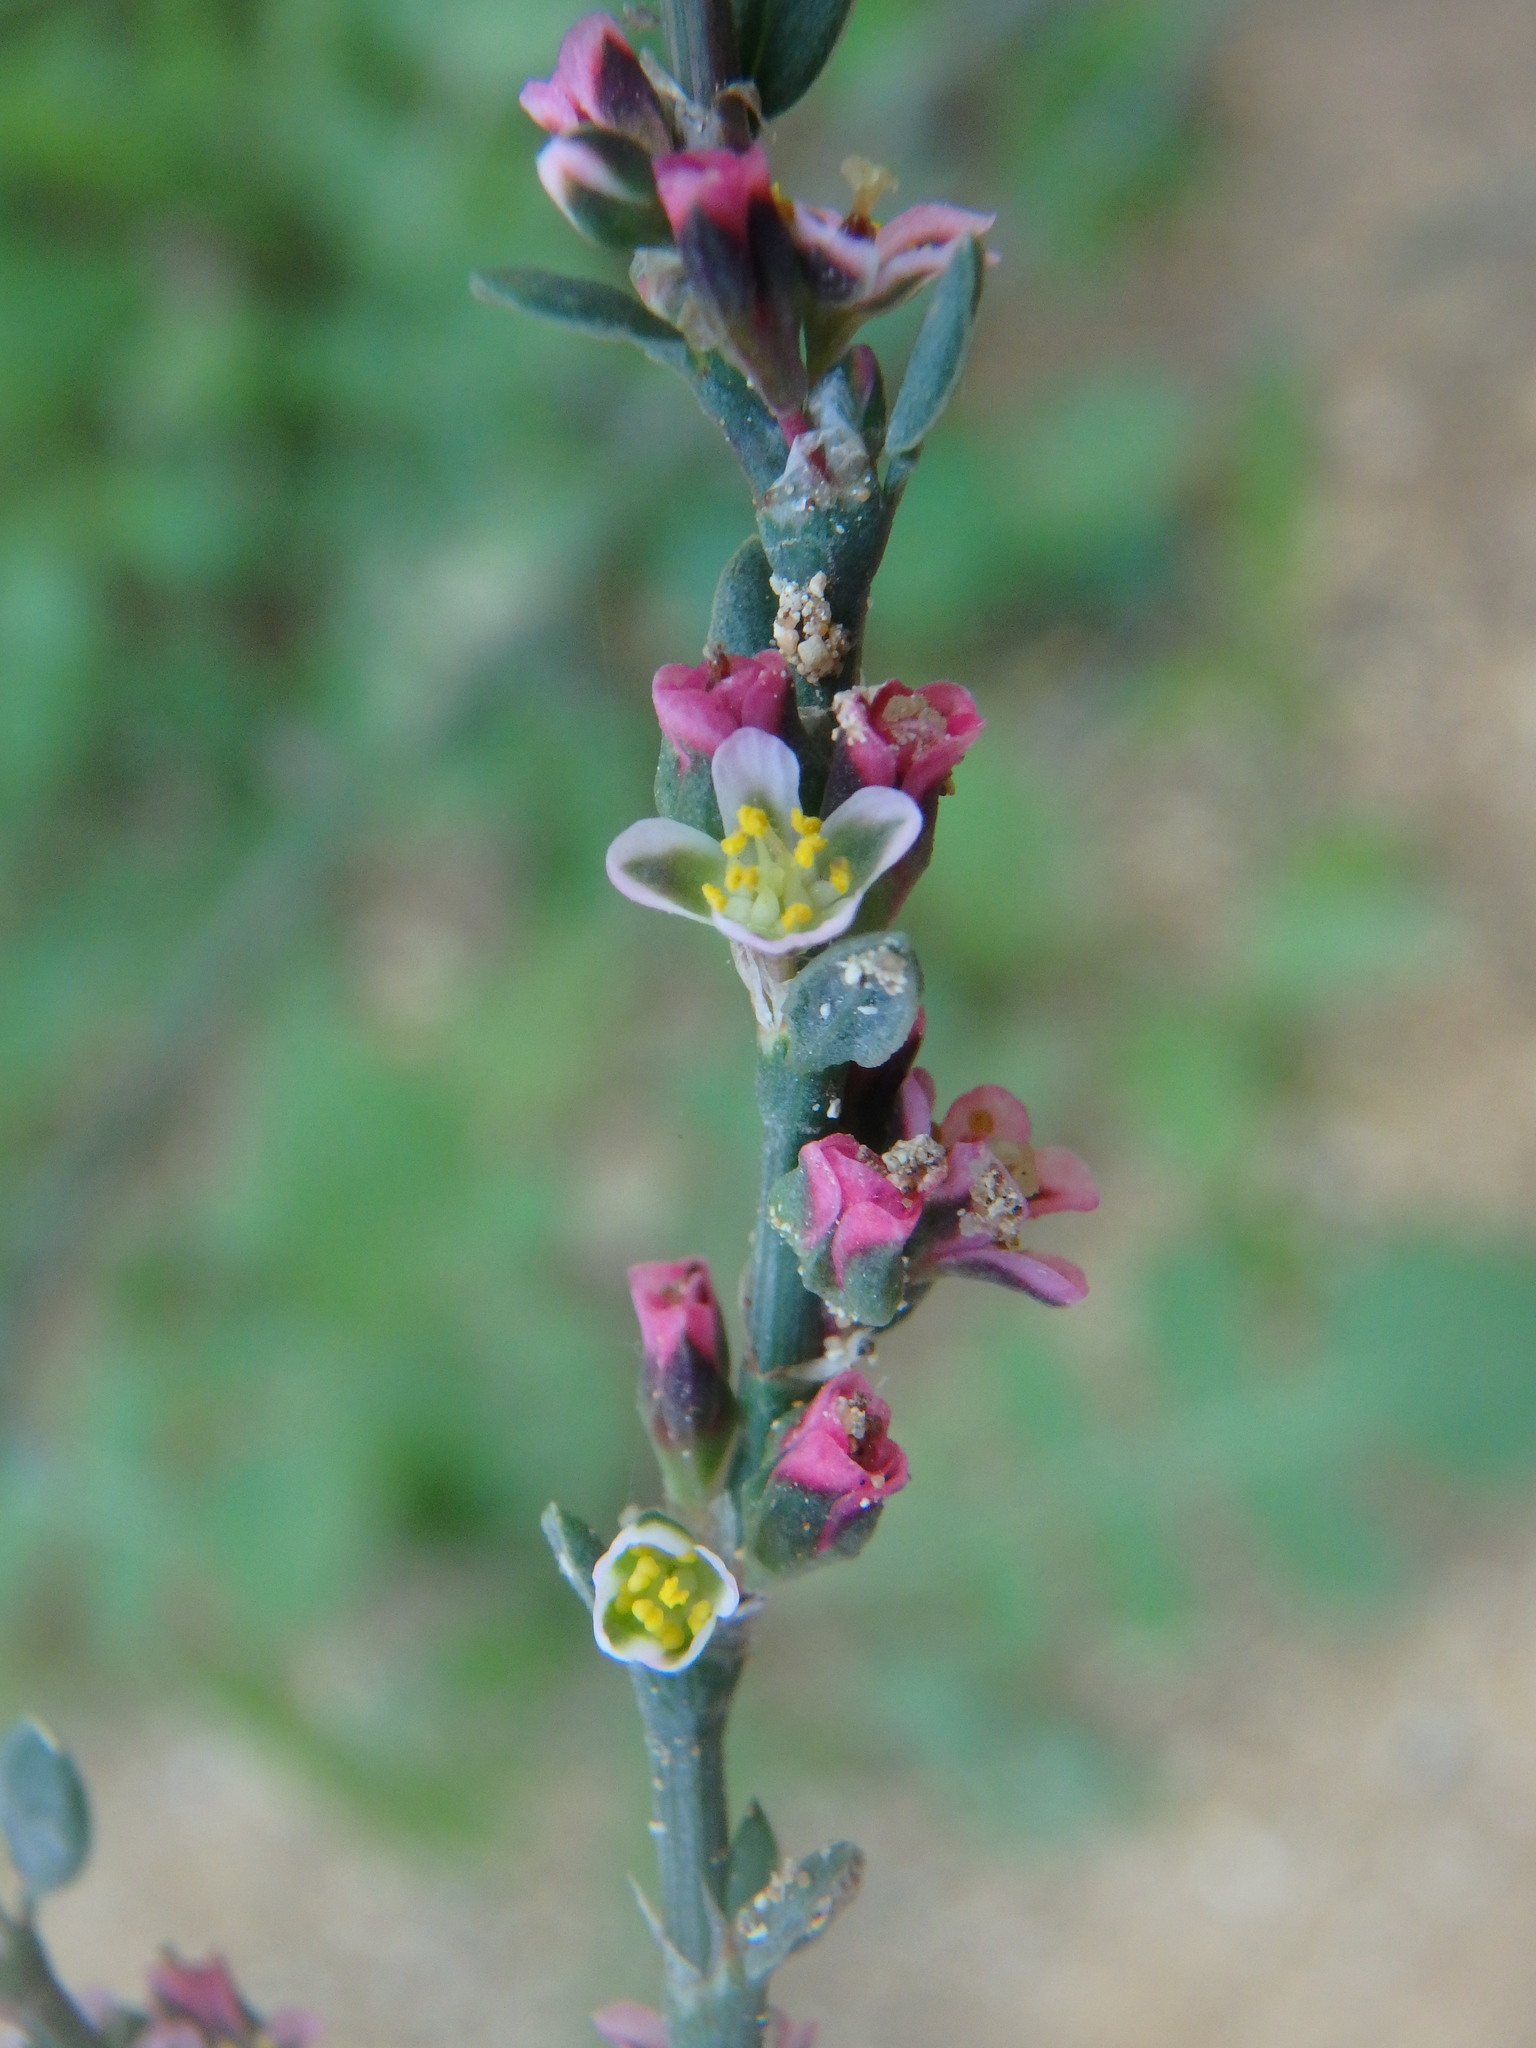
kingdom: Plantae
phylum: Tracheophyta
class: Magnoliopsida
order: Caryophyllales
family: Polygonaceae
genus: Polygonum
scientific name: Polygonum equisetiforme
